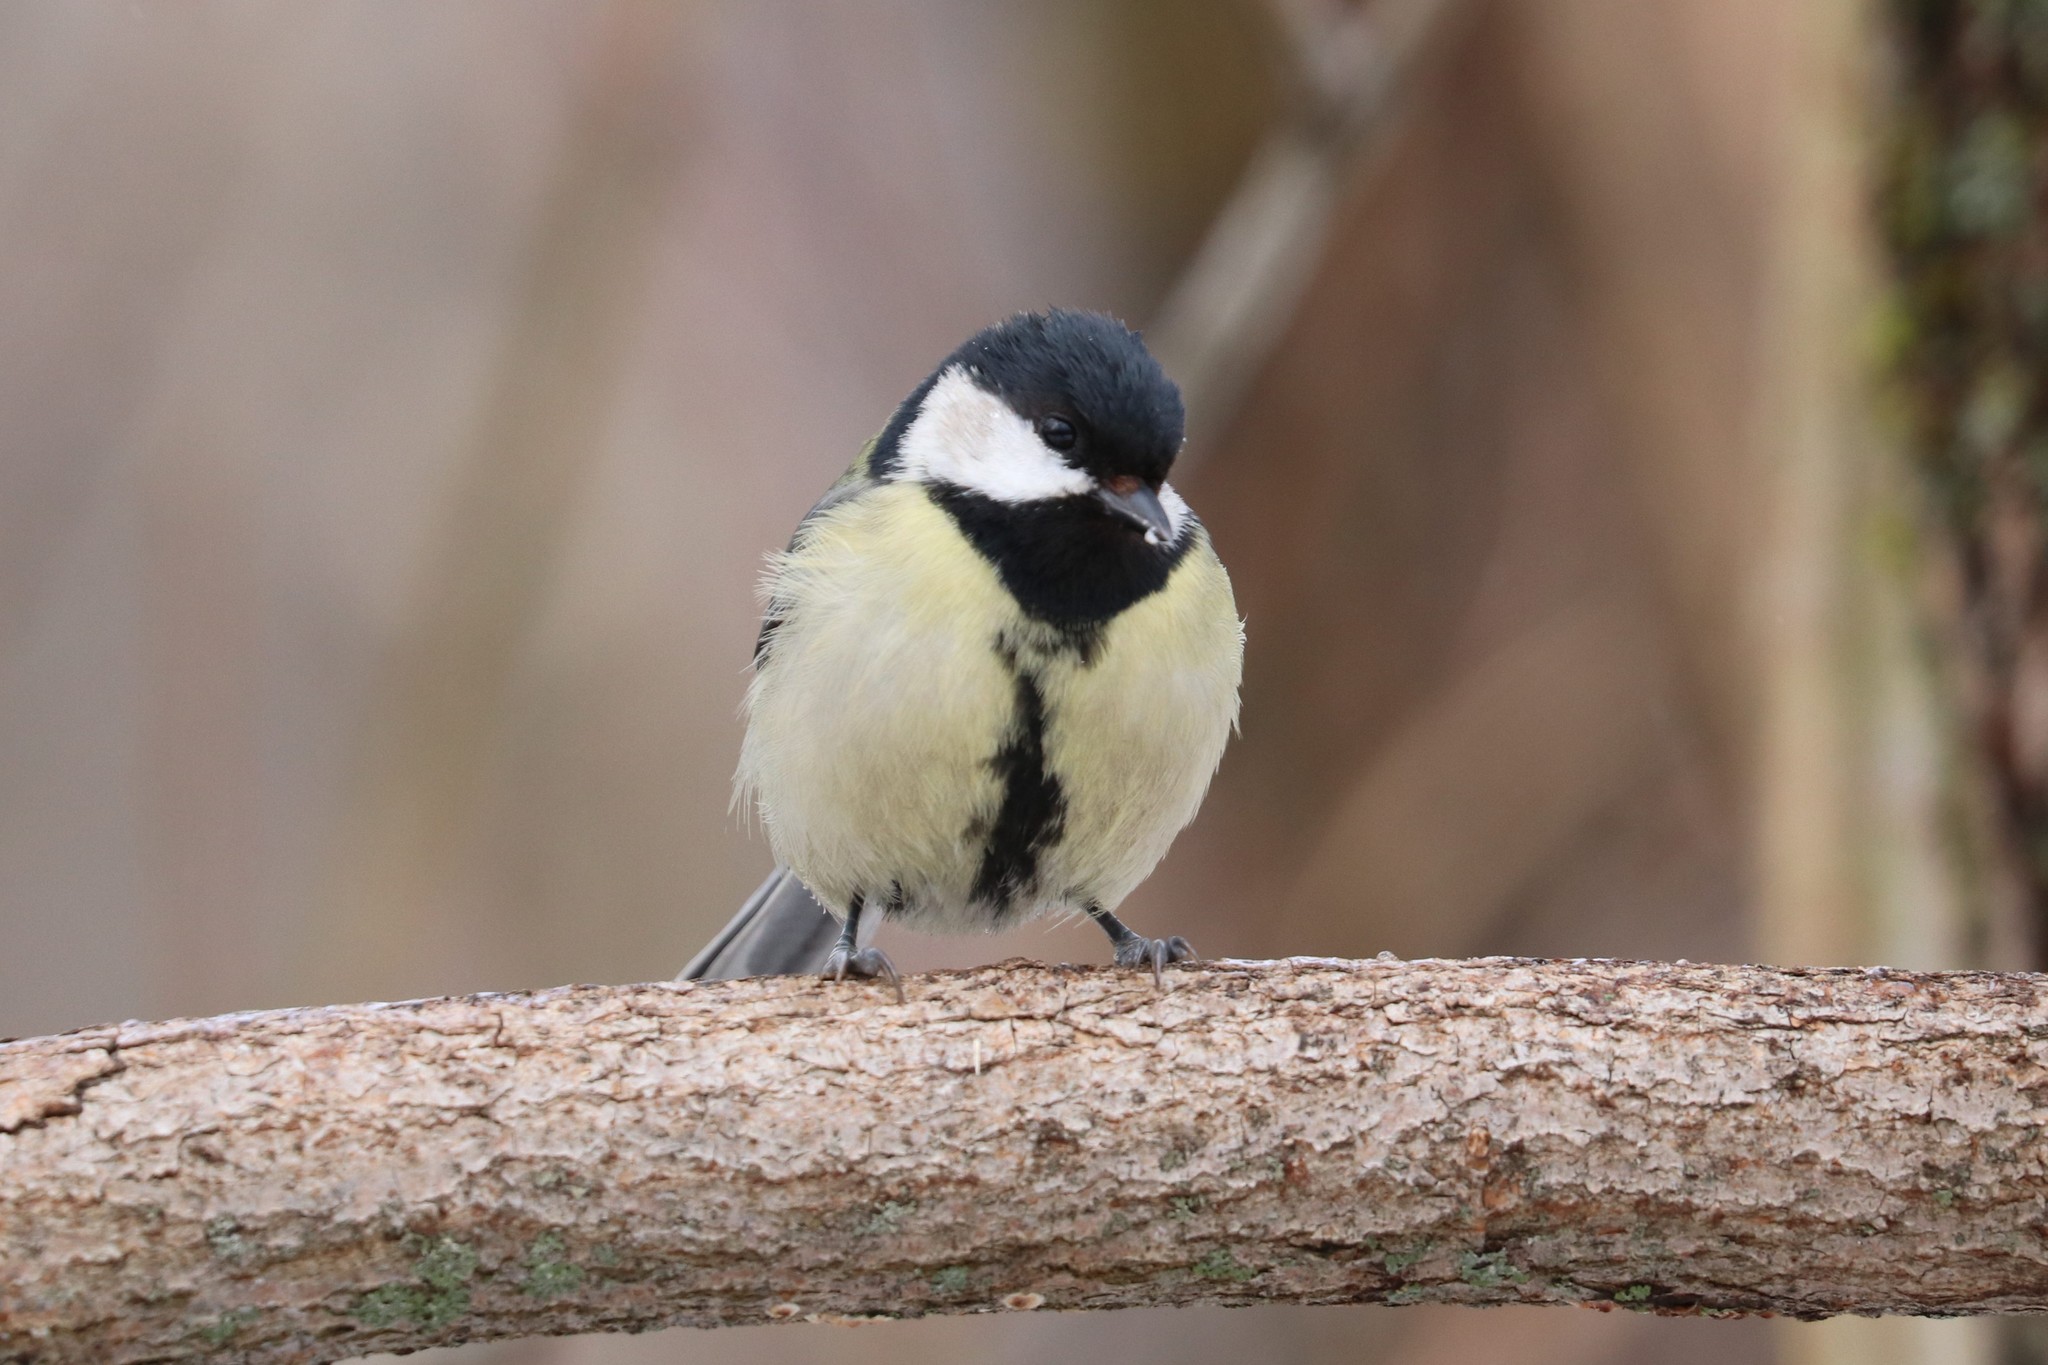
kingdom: Animalia
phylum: Chordata
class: Aves
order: Passeriformes
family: Paridae
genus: Parus
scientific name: Parus major
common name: Great tit
